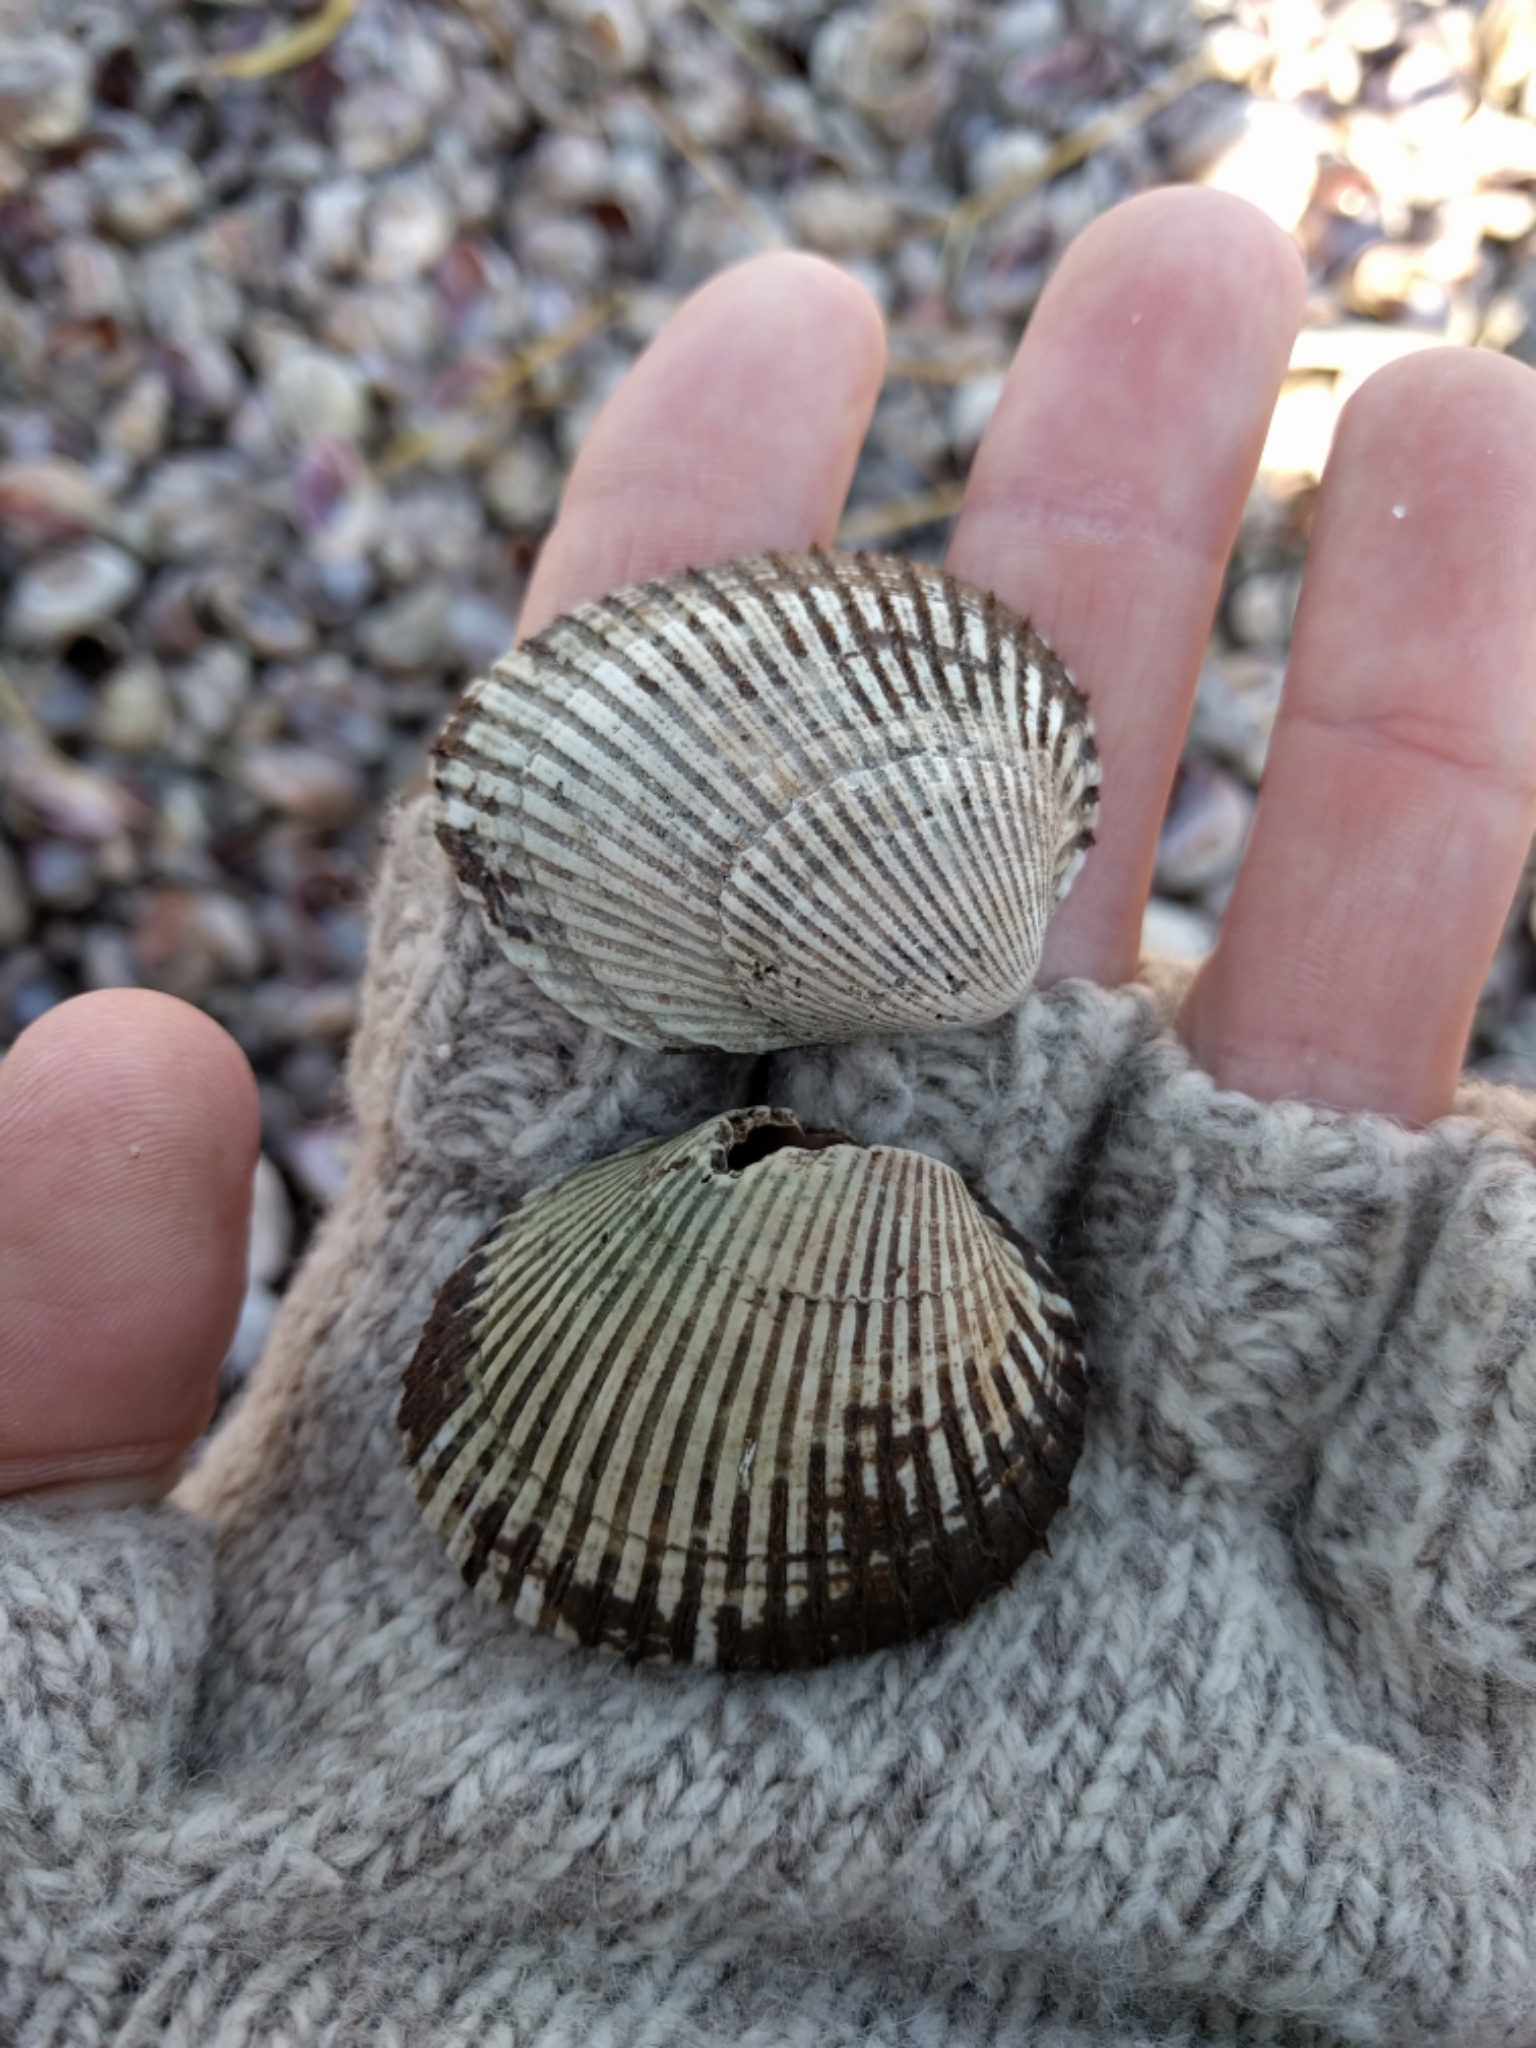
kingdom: Animalia
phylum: Mollusca
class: Bivalvia
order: Arcida
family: Arcidae
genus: Lunarca
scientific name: Lunarca ovalis
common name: Blood ark
